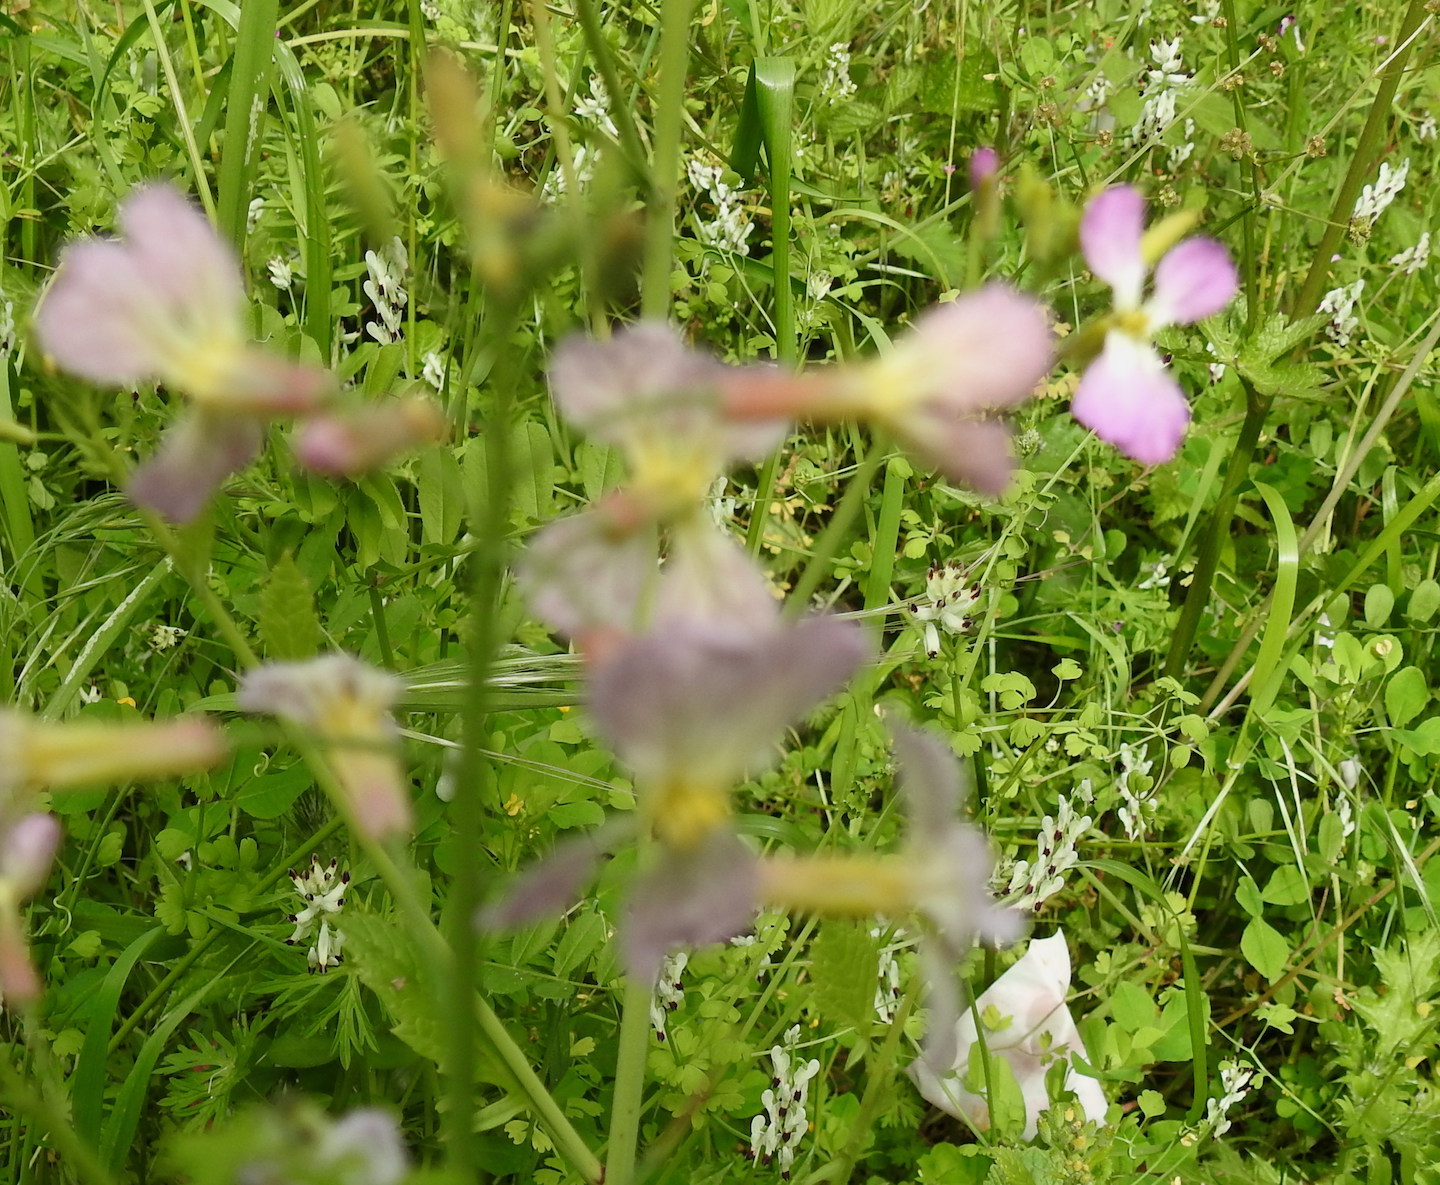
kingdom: Plantae
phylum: Tracheophyta
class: Magnoliopsida
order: Brassicales
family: Brassicaceae
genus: Raphanus
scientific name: Raphanus sativus
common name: Cultivated radish
